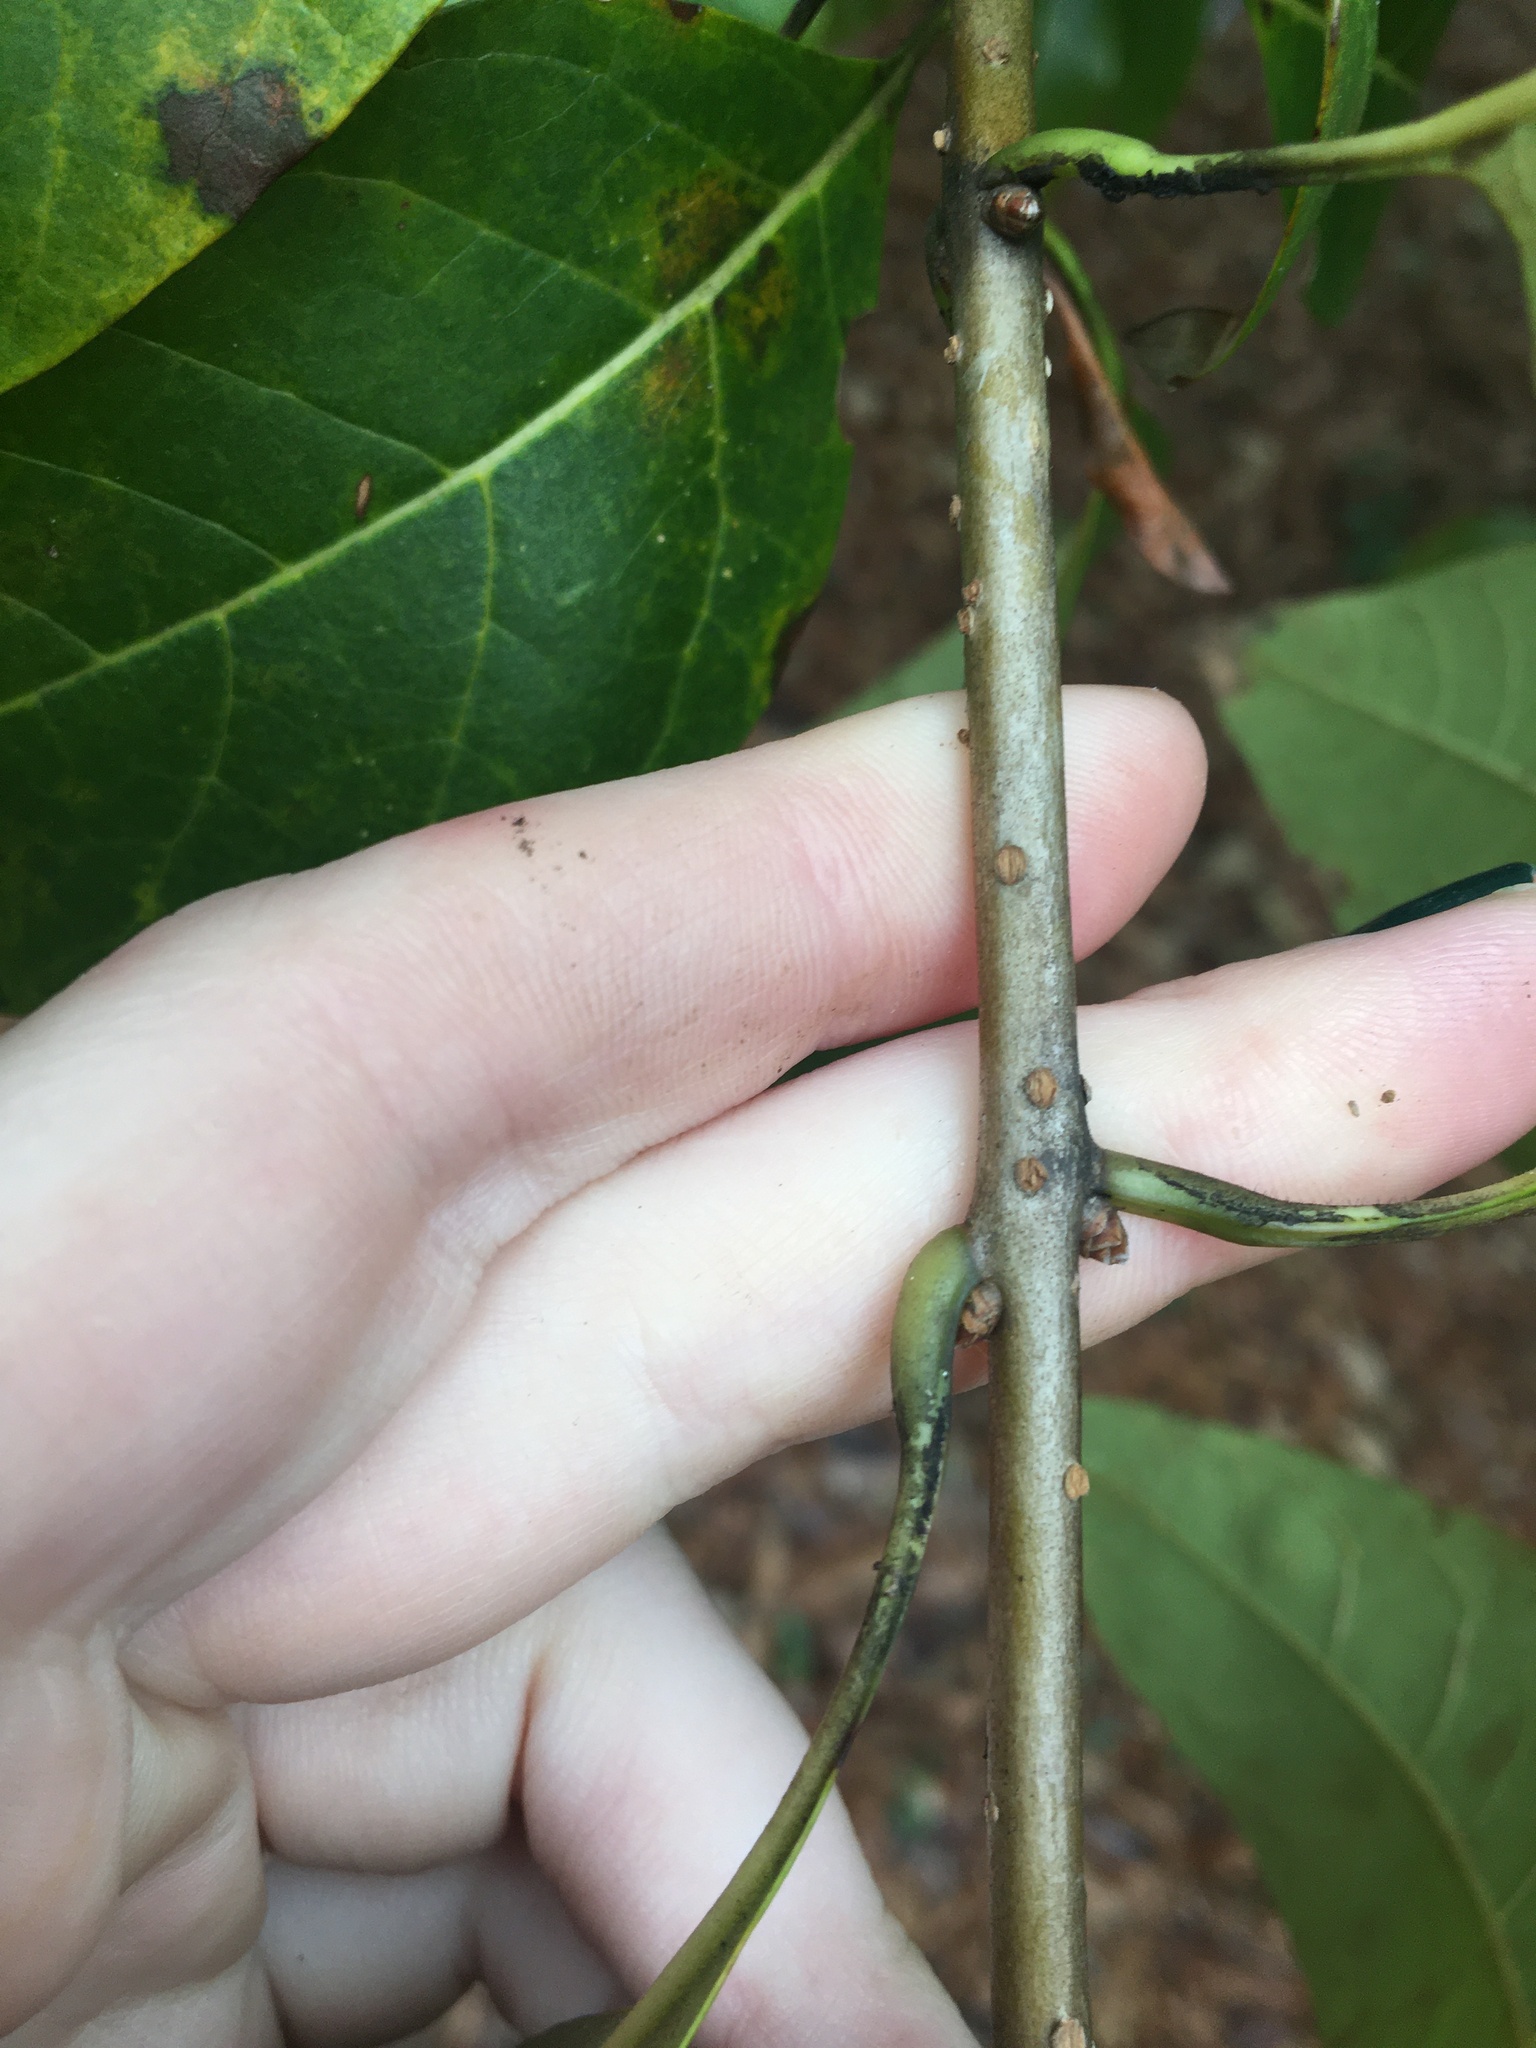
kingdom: Plantae
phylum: Tracheophyta
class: Magnoliopsida
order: Lamiales
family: Oleaceae
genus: Chionanthus
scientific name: Chionanthus virginicus
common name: American fringetree
